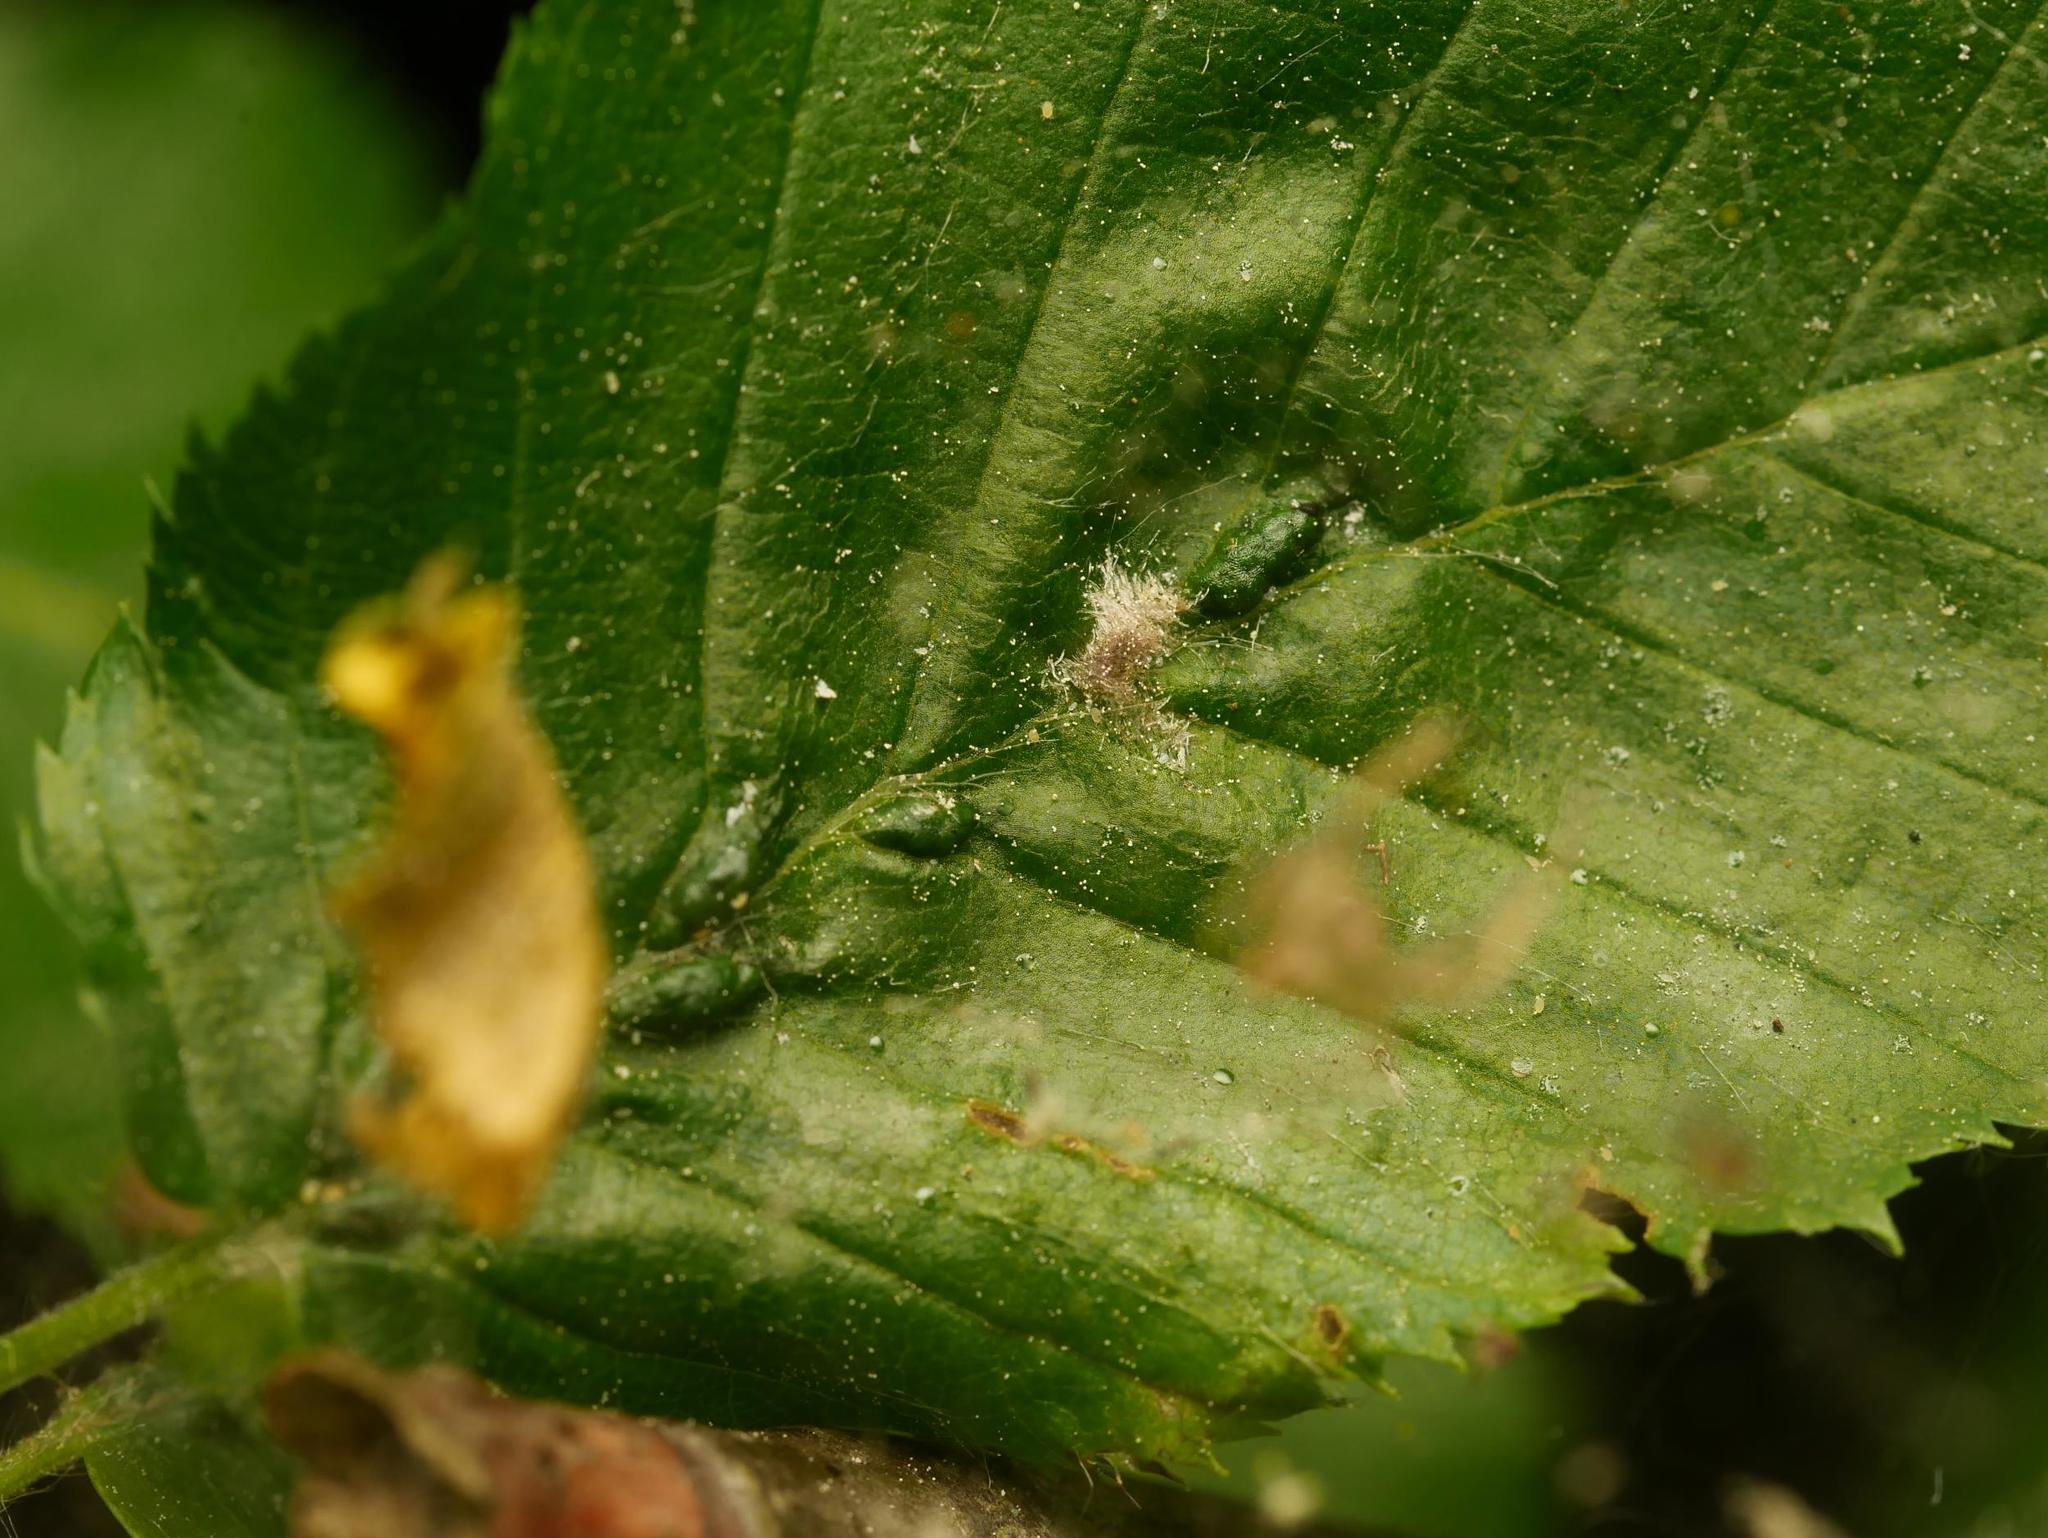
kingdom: Animalia
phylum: Arthropoda
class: Arachnida
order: Trombidiformes
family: Eriophyidae
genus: Aceria
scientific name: Aceria tenellus
